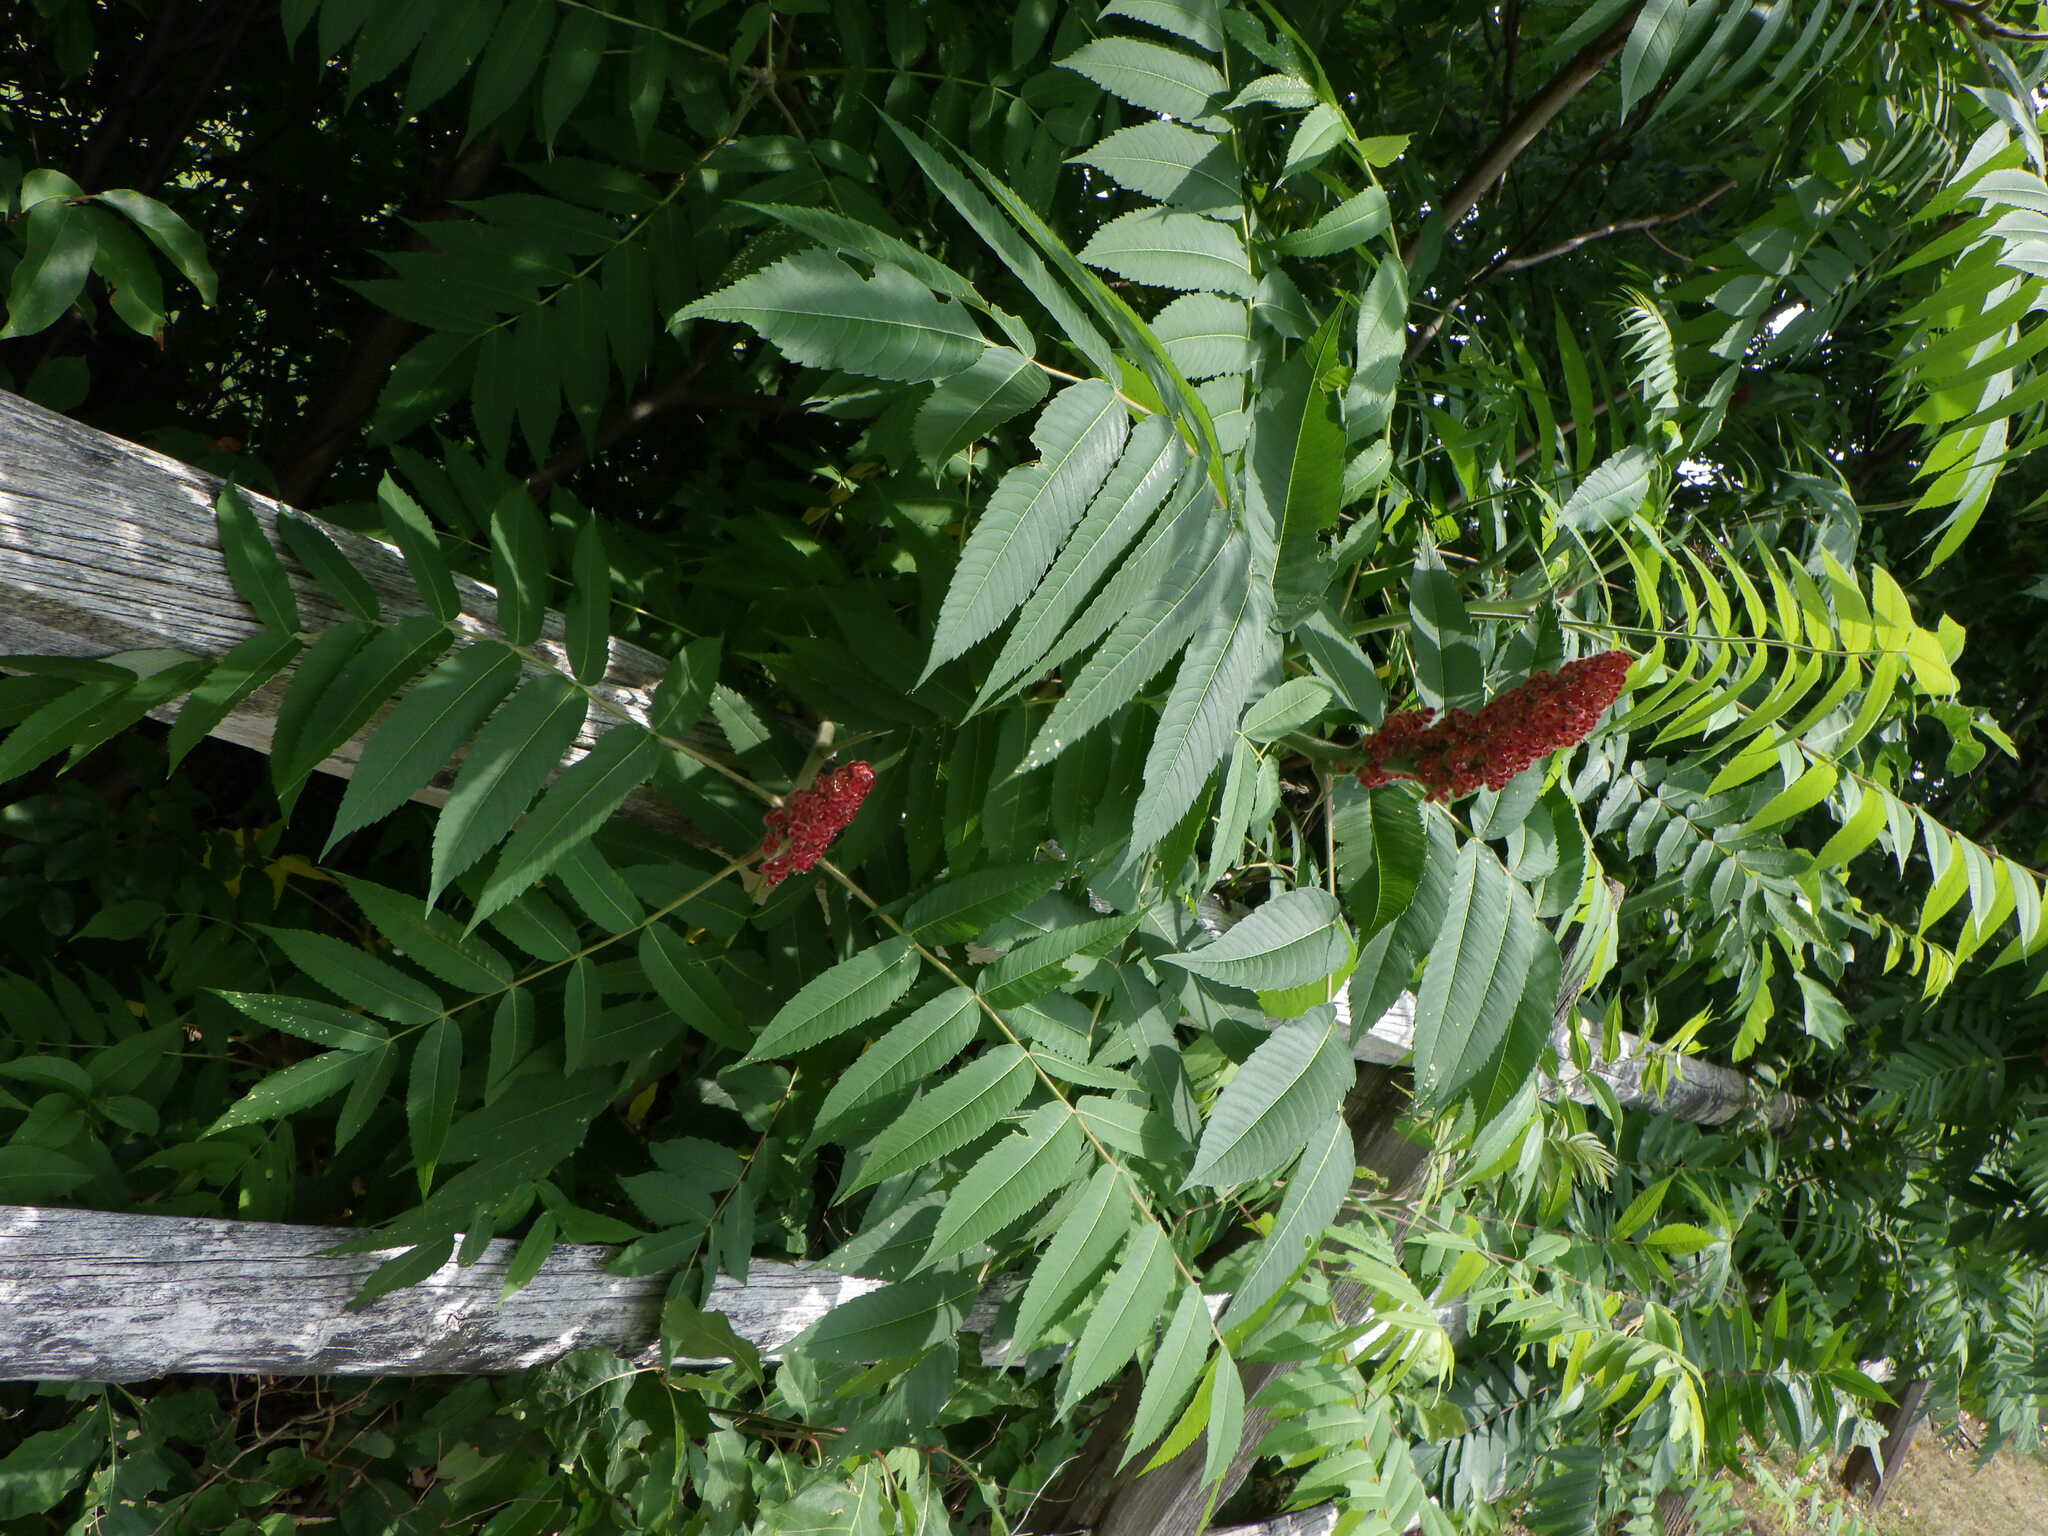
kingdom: Plantae
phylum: Tracheophyta
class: Magnoliopsida
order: Sapindales
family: Anacardiaceae
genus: Rhus
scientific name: Rhus typhina
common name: Staghorn sumac
